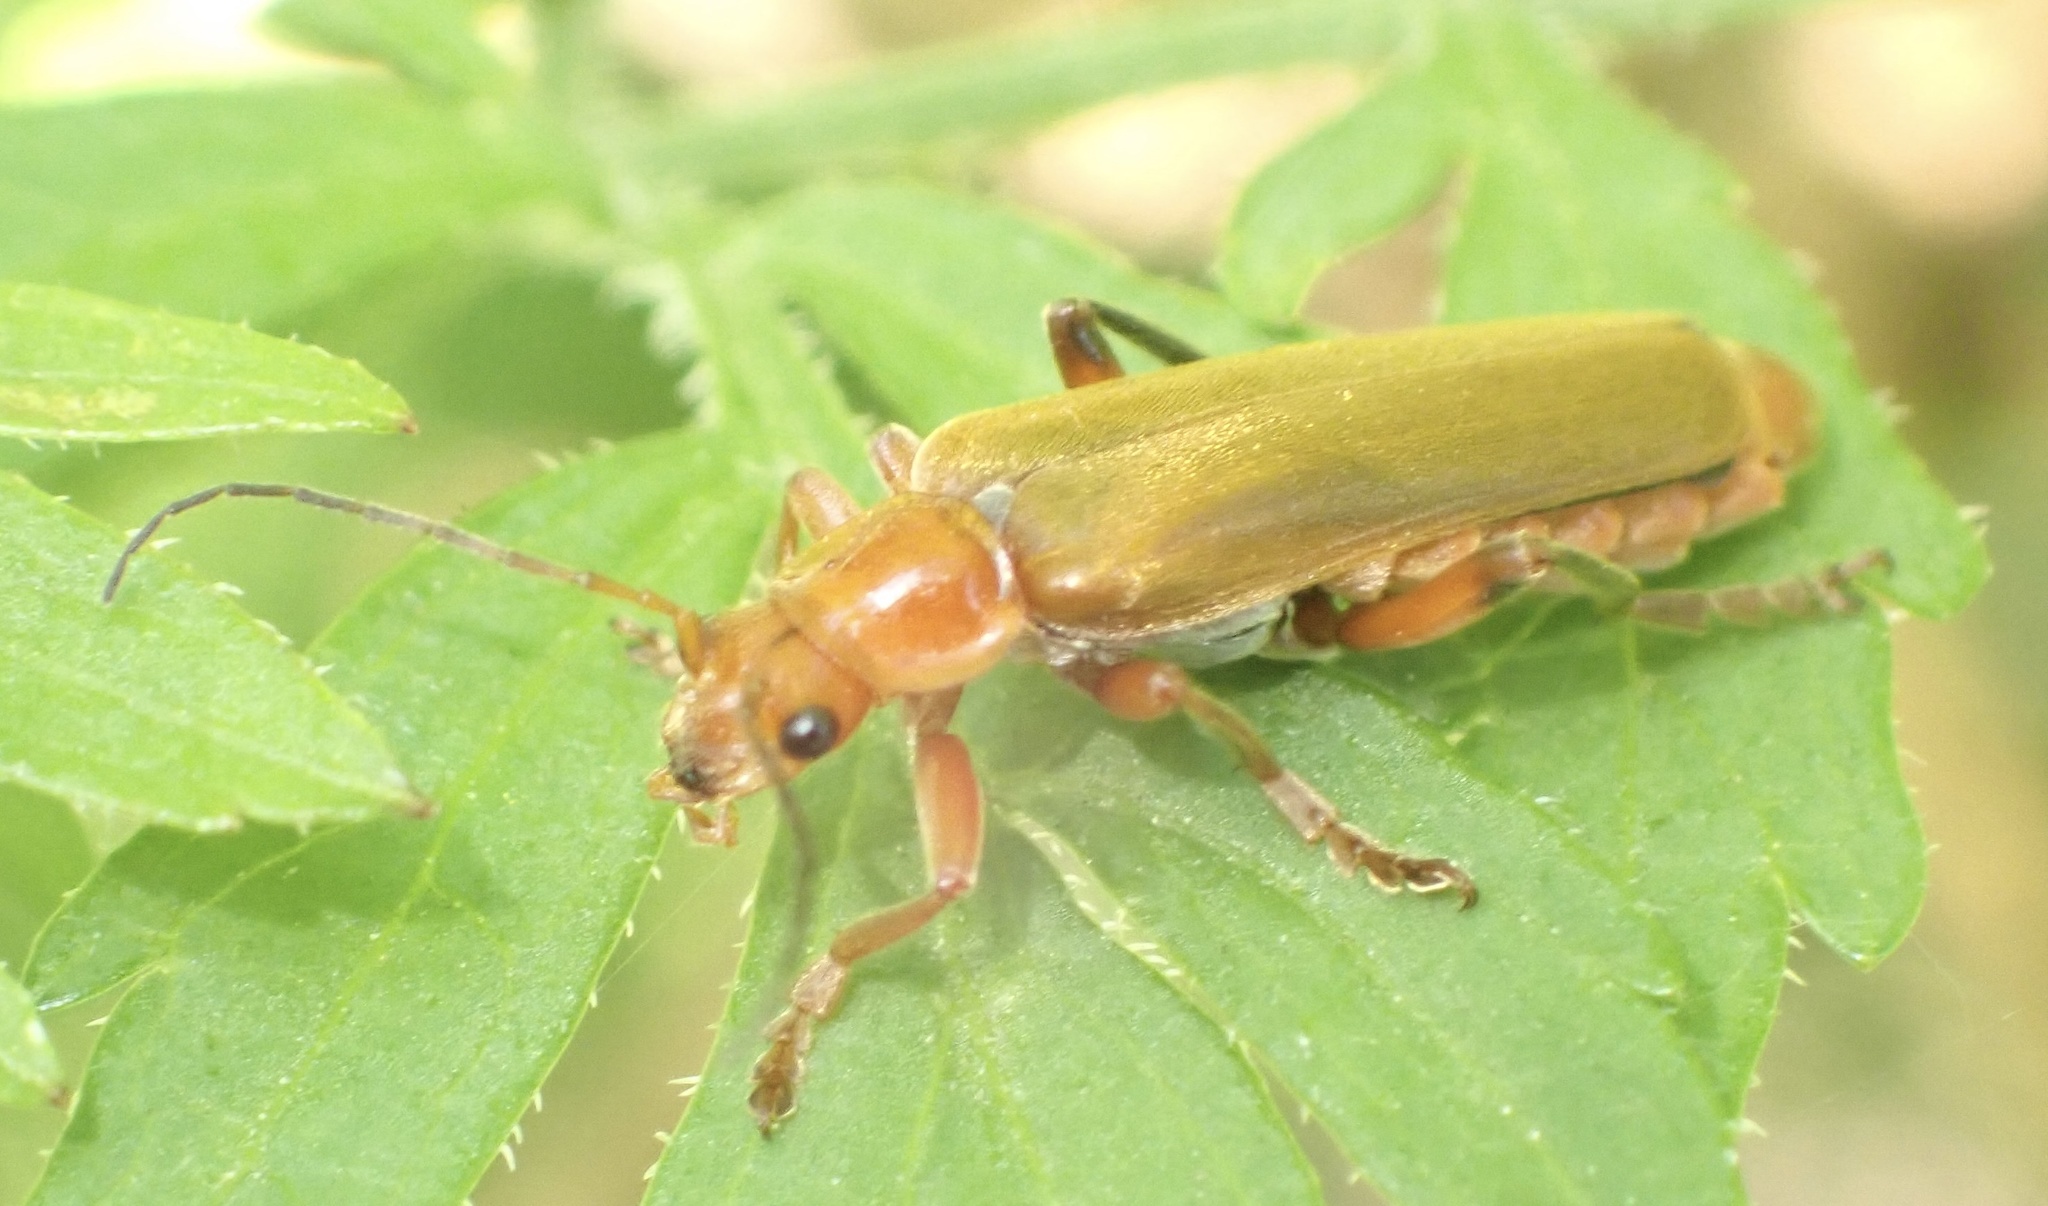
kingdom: Animalia
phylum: Arthropoda
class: Insecta
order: Coleoptera
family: Cantharidae
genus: Cantharis
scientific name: Cantharis livida
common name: Livid soldier beetle
